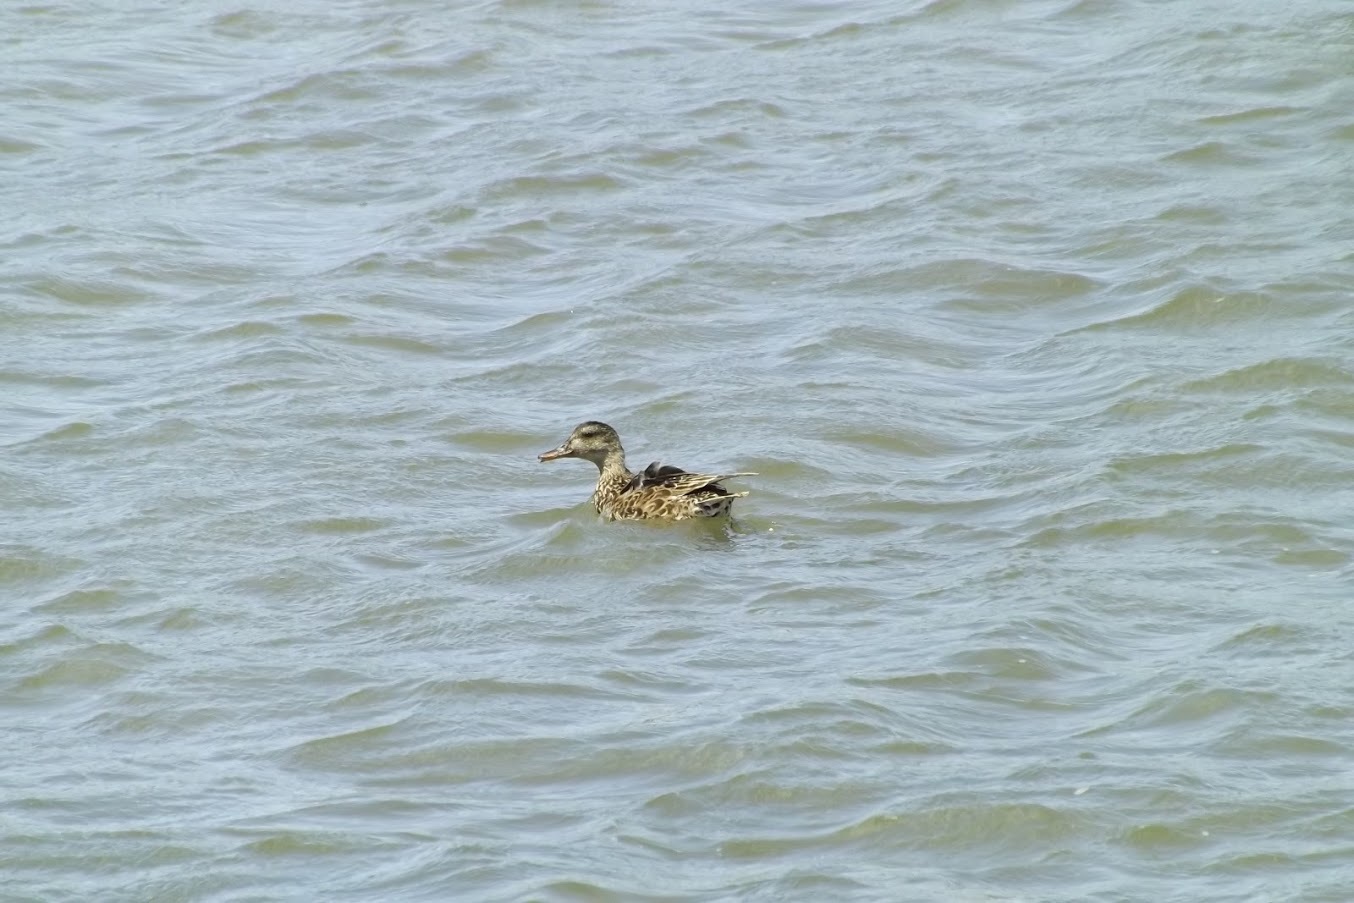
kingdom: Animalia
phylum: Chordata
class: Aves
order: Anseriformes
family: Anatidae
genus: Anas
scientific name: Anas platyrhynchos
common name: Mallard
